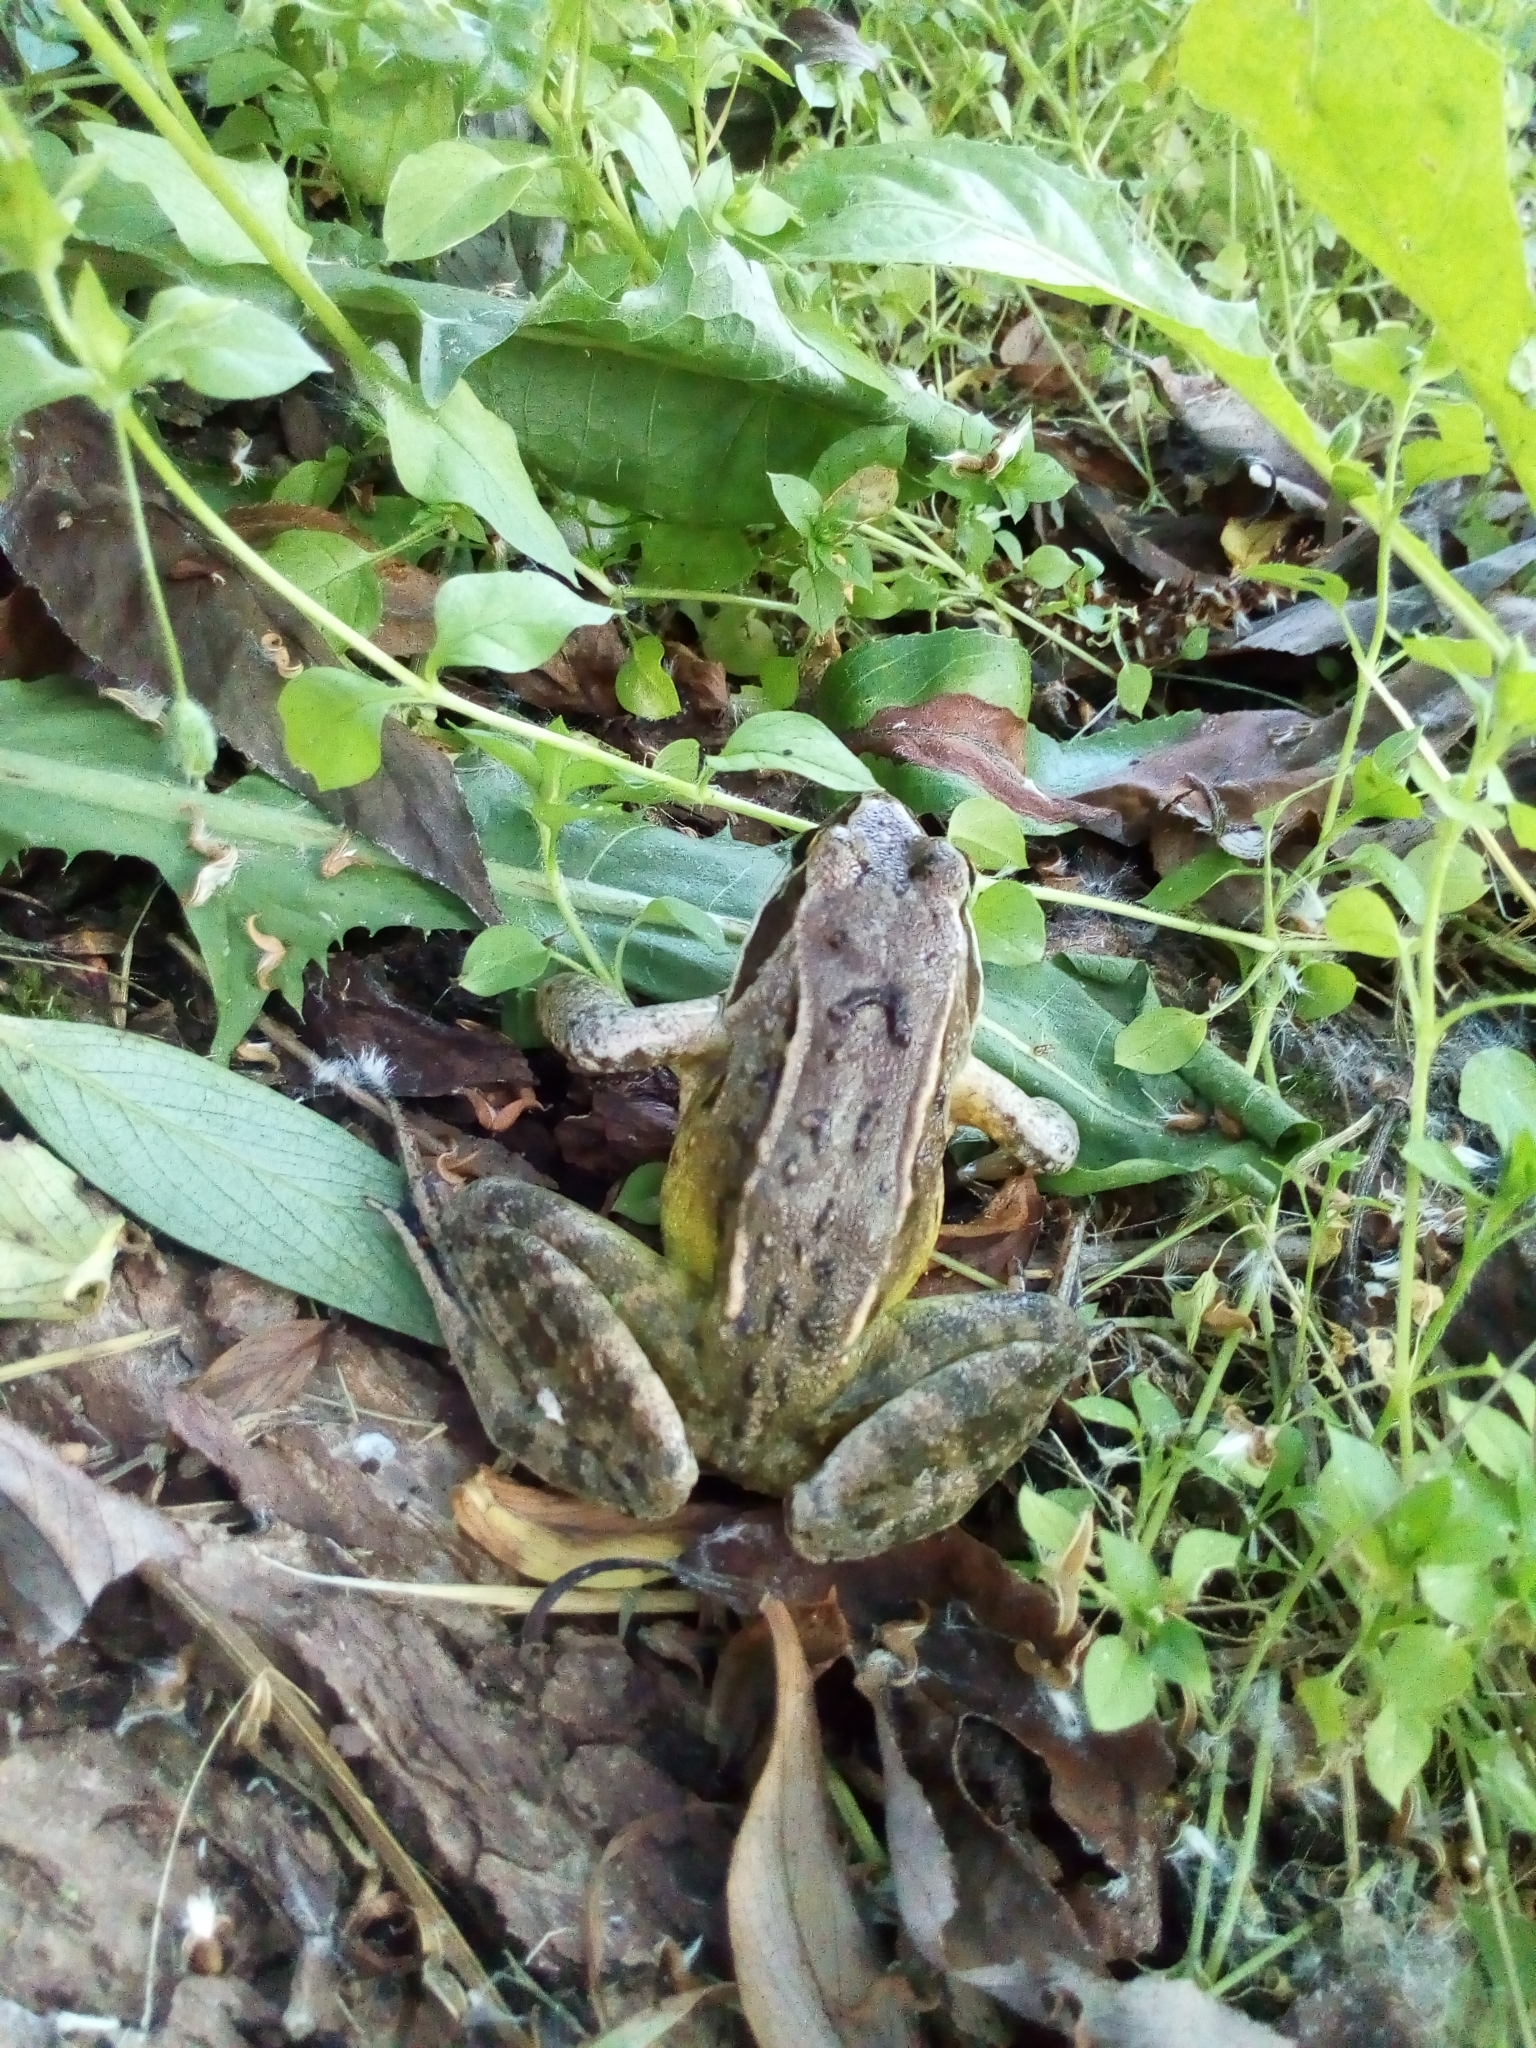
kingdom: Animalia
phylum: Chordata
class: Amphibia
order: Anura
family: Ranidae
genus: Rana
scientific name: Rana arvalis
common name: Moor frog
